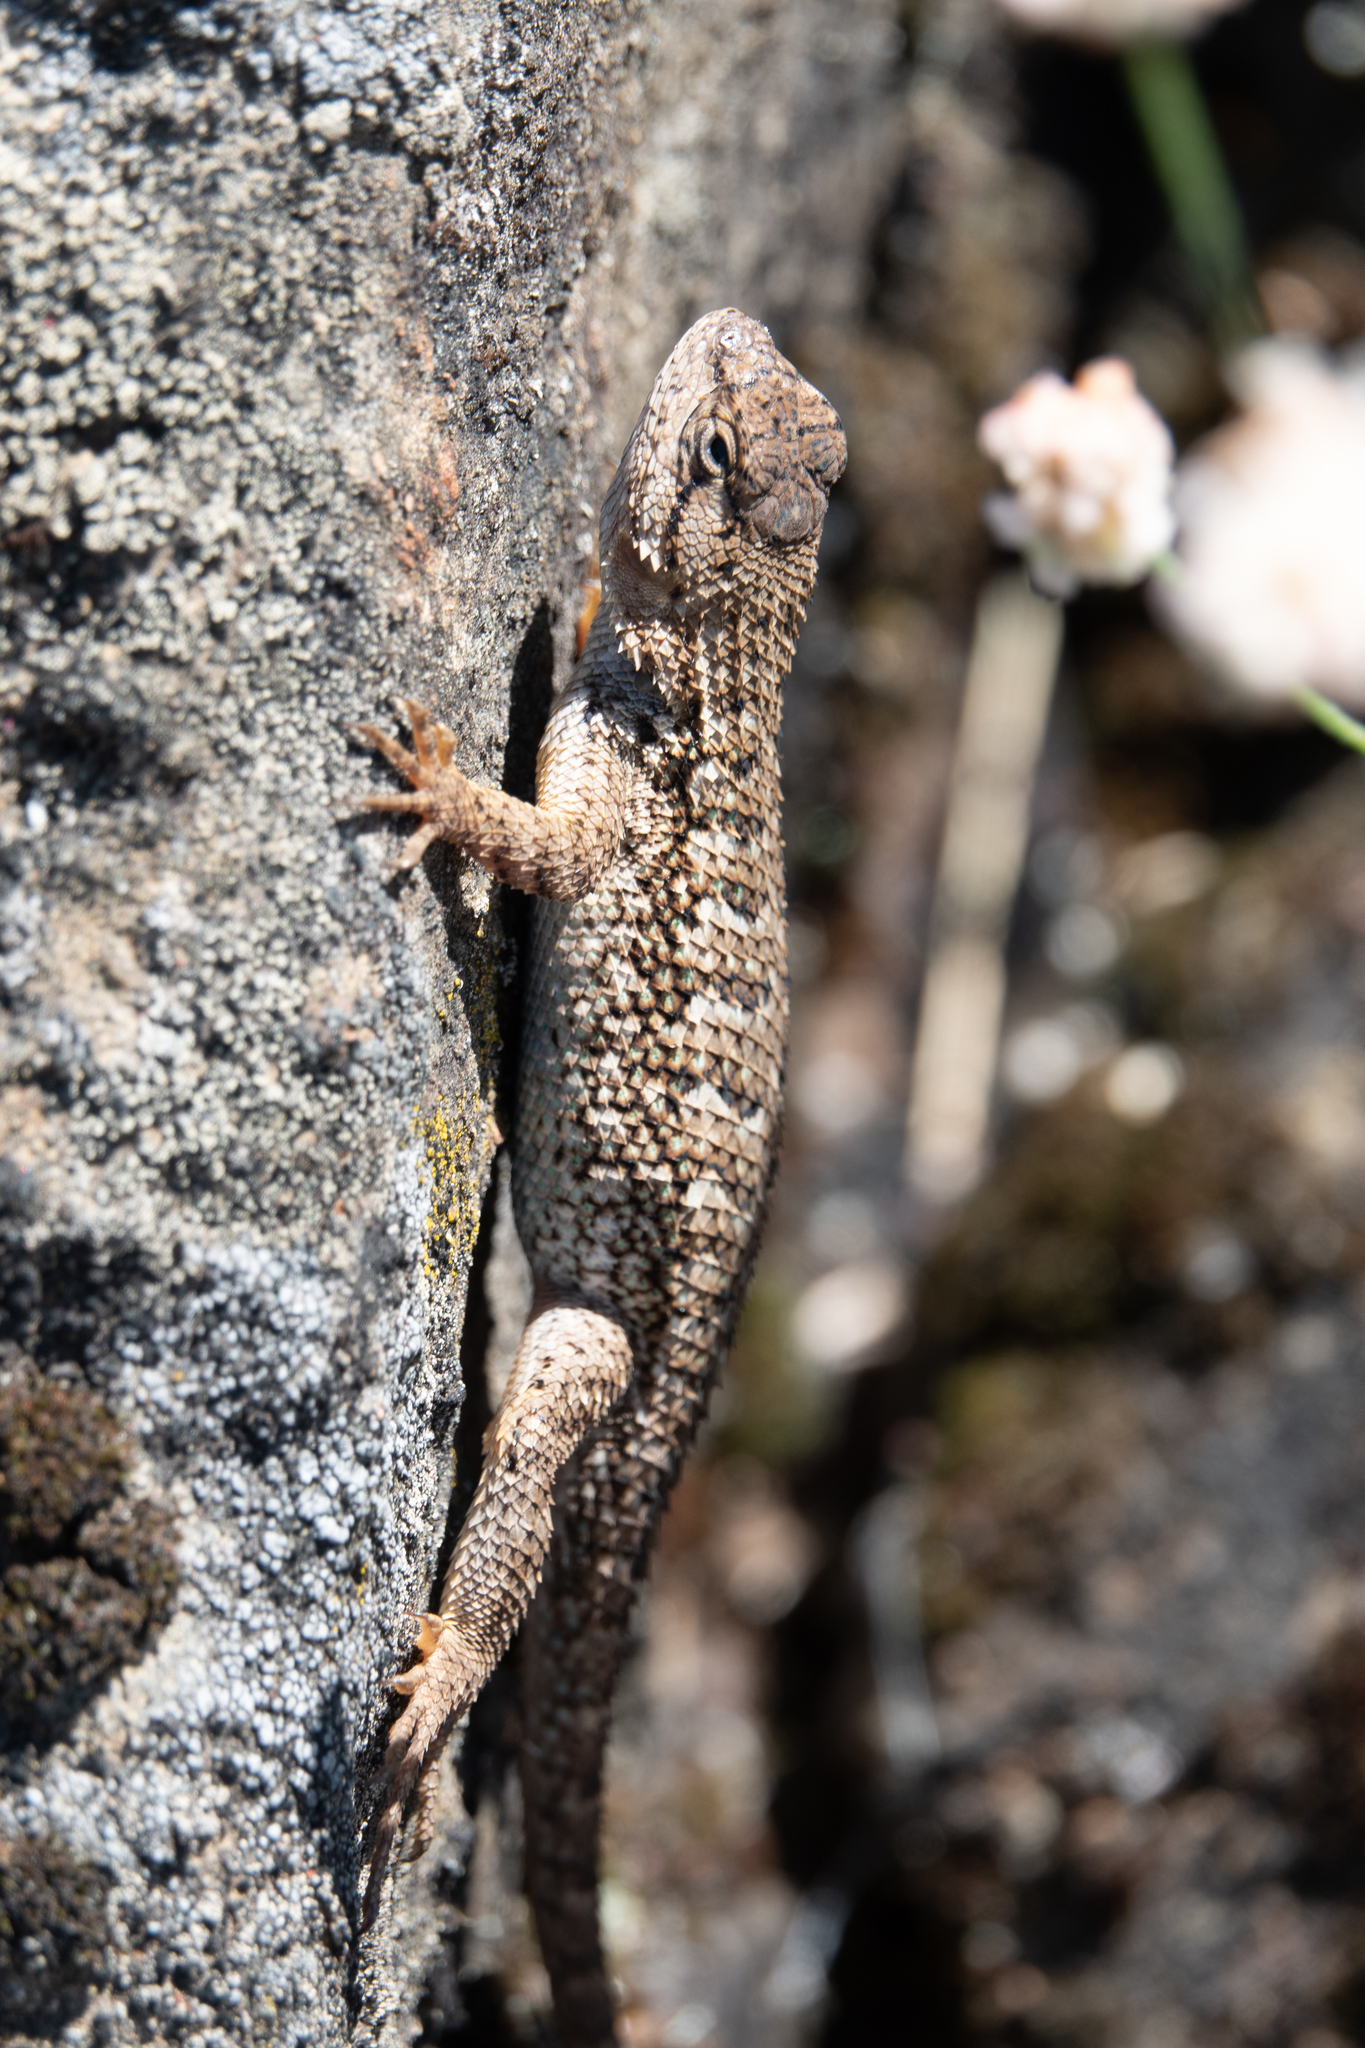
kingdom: Animalia
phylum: Chordata
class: Squamata
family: Phrynosomatidae
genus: Sceloporus
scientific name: Sceloporus occidentalis
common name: Western fence lizard
